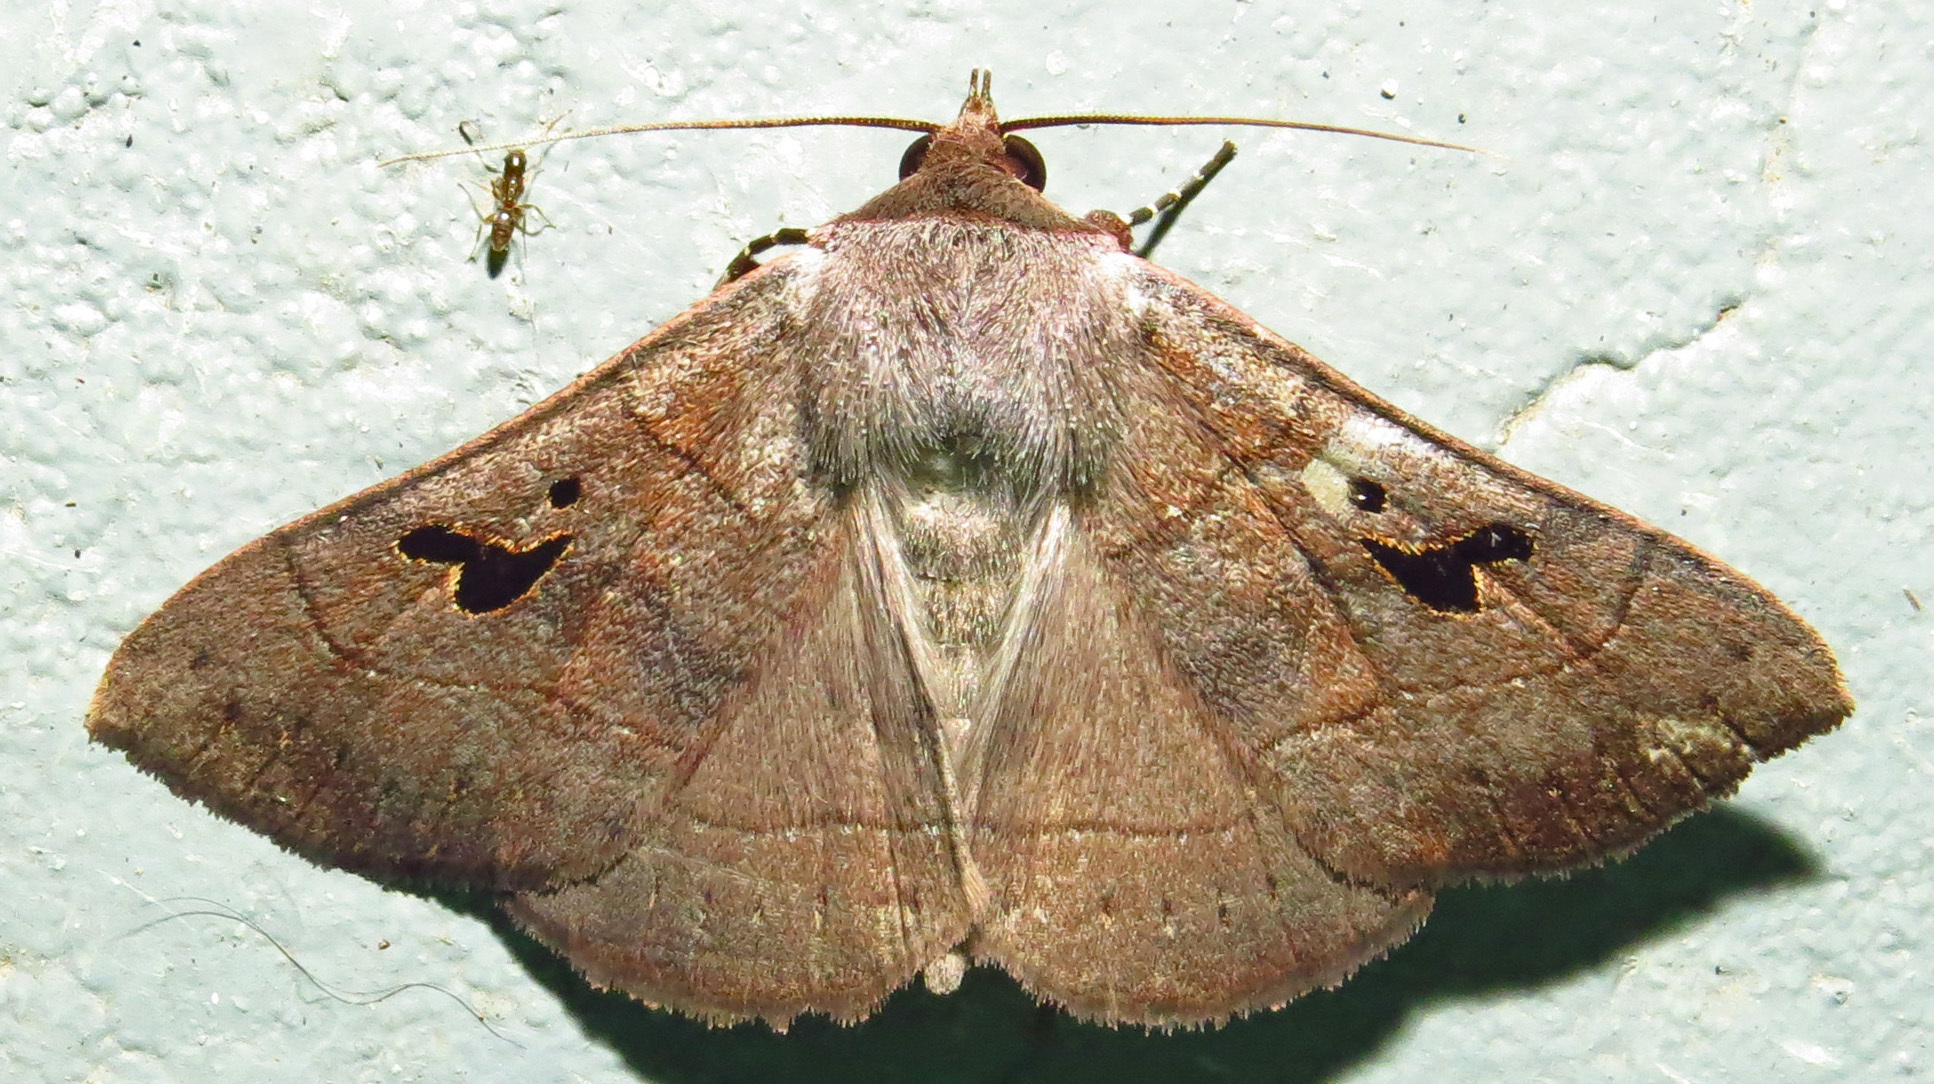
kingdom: Animalia
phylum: Arthropoda
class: Insecta
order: Lepidoptera
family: Erebidae
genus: Panopoda
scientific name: Panopoda carneicosta
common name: Brown panopoda moth
